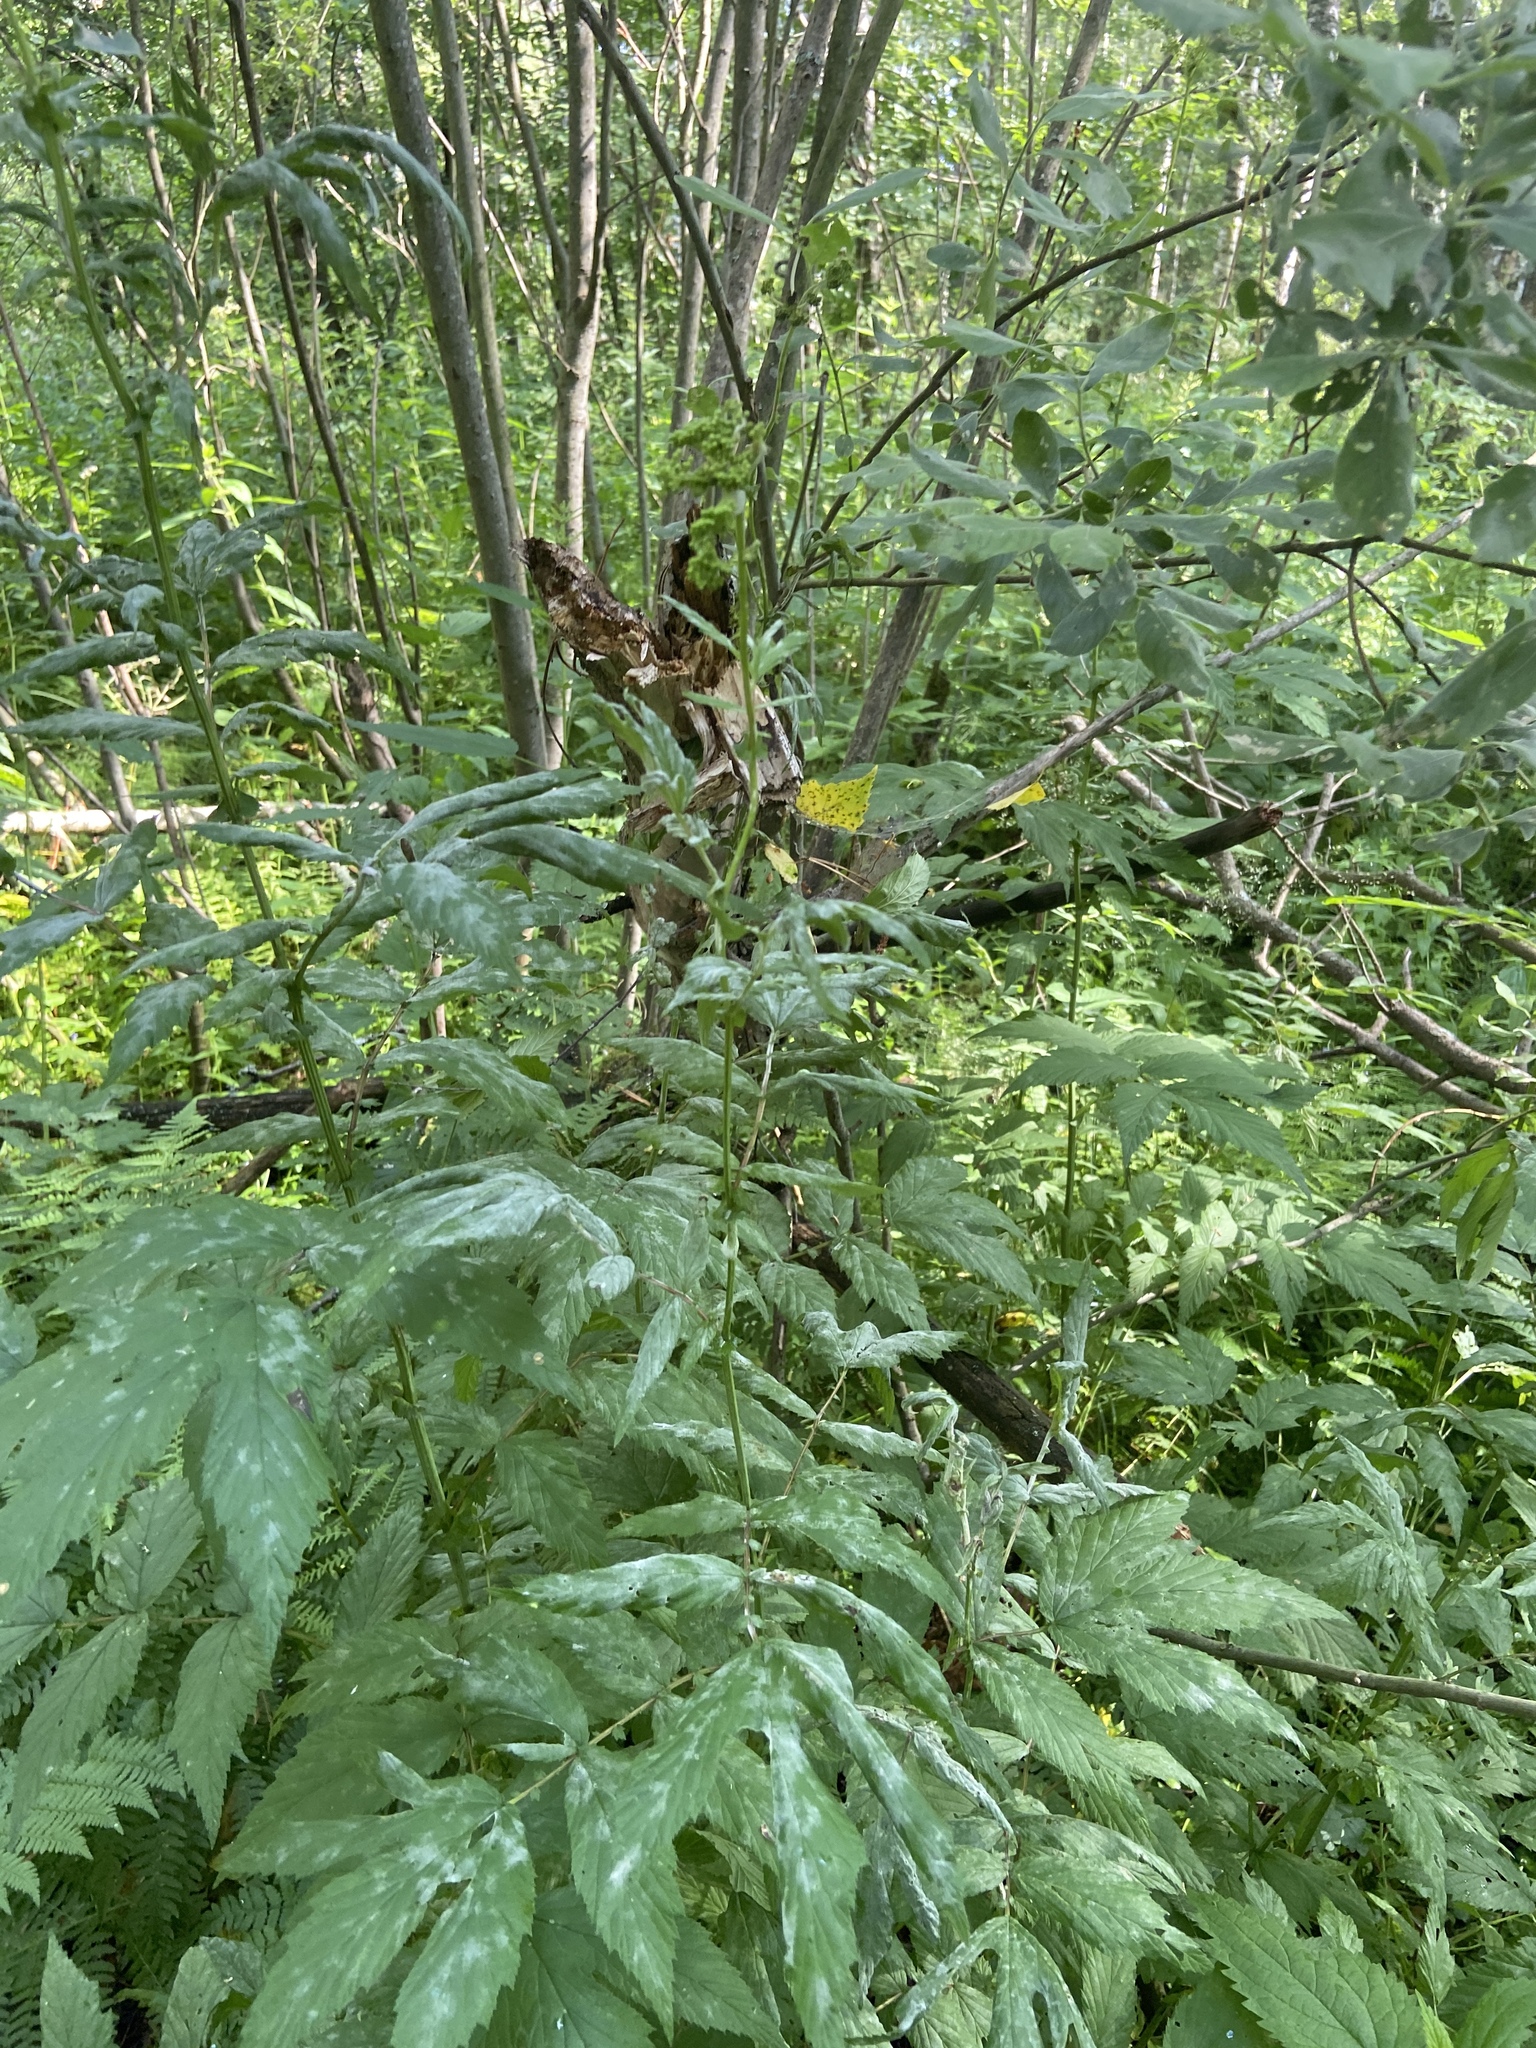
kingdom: Plantae
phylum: Tracheophyta
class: Magnoliopsida
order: Rosales
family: Rosaceae
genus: Filipendula
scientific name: Filipendula ulmaria
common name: Meadowsweet
